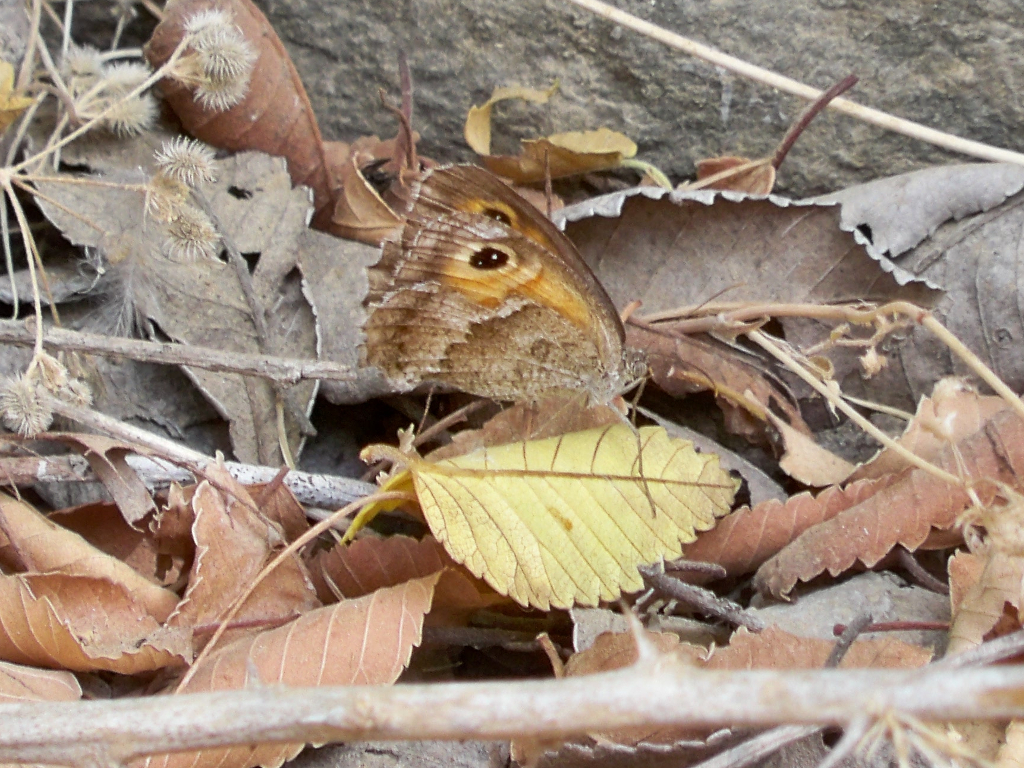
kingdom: Animalia
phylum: Arthropoda
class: Insecta
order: Lepidoptera
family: Nymphalidae
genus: Pyronia
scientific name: Pyronia cecilia
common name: Southern gatekeeper
